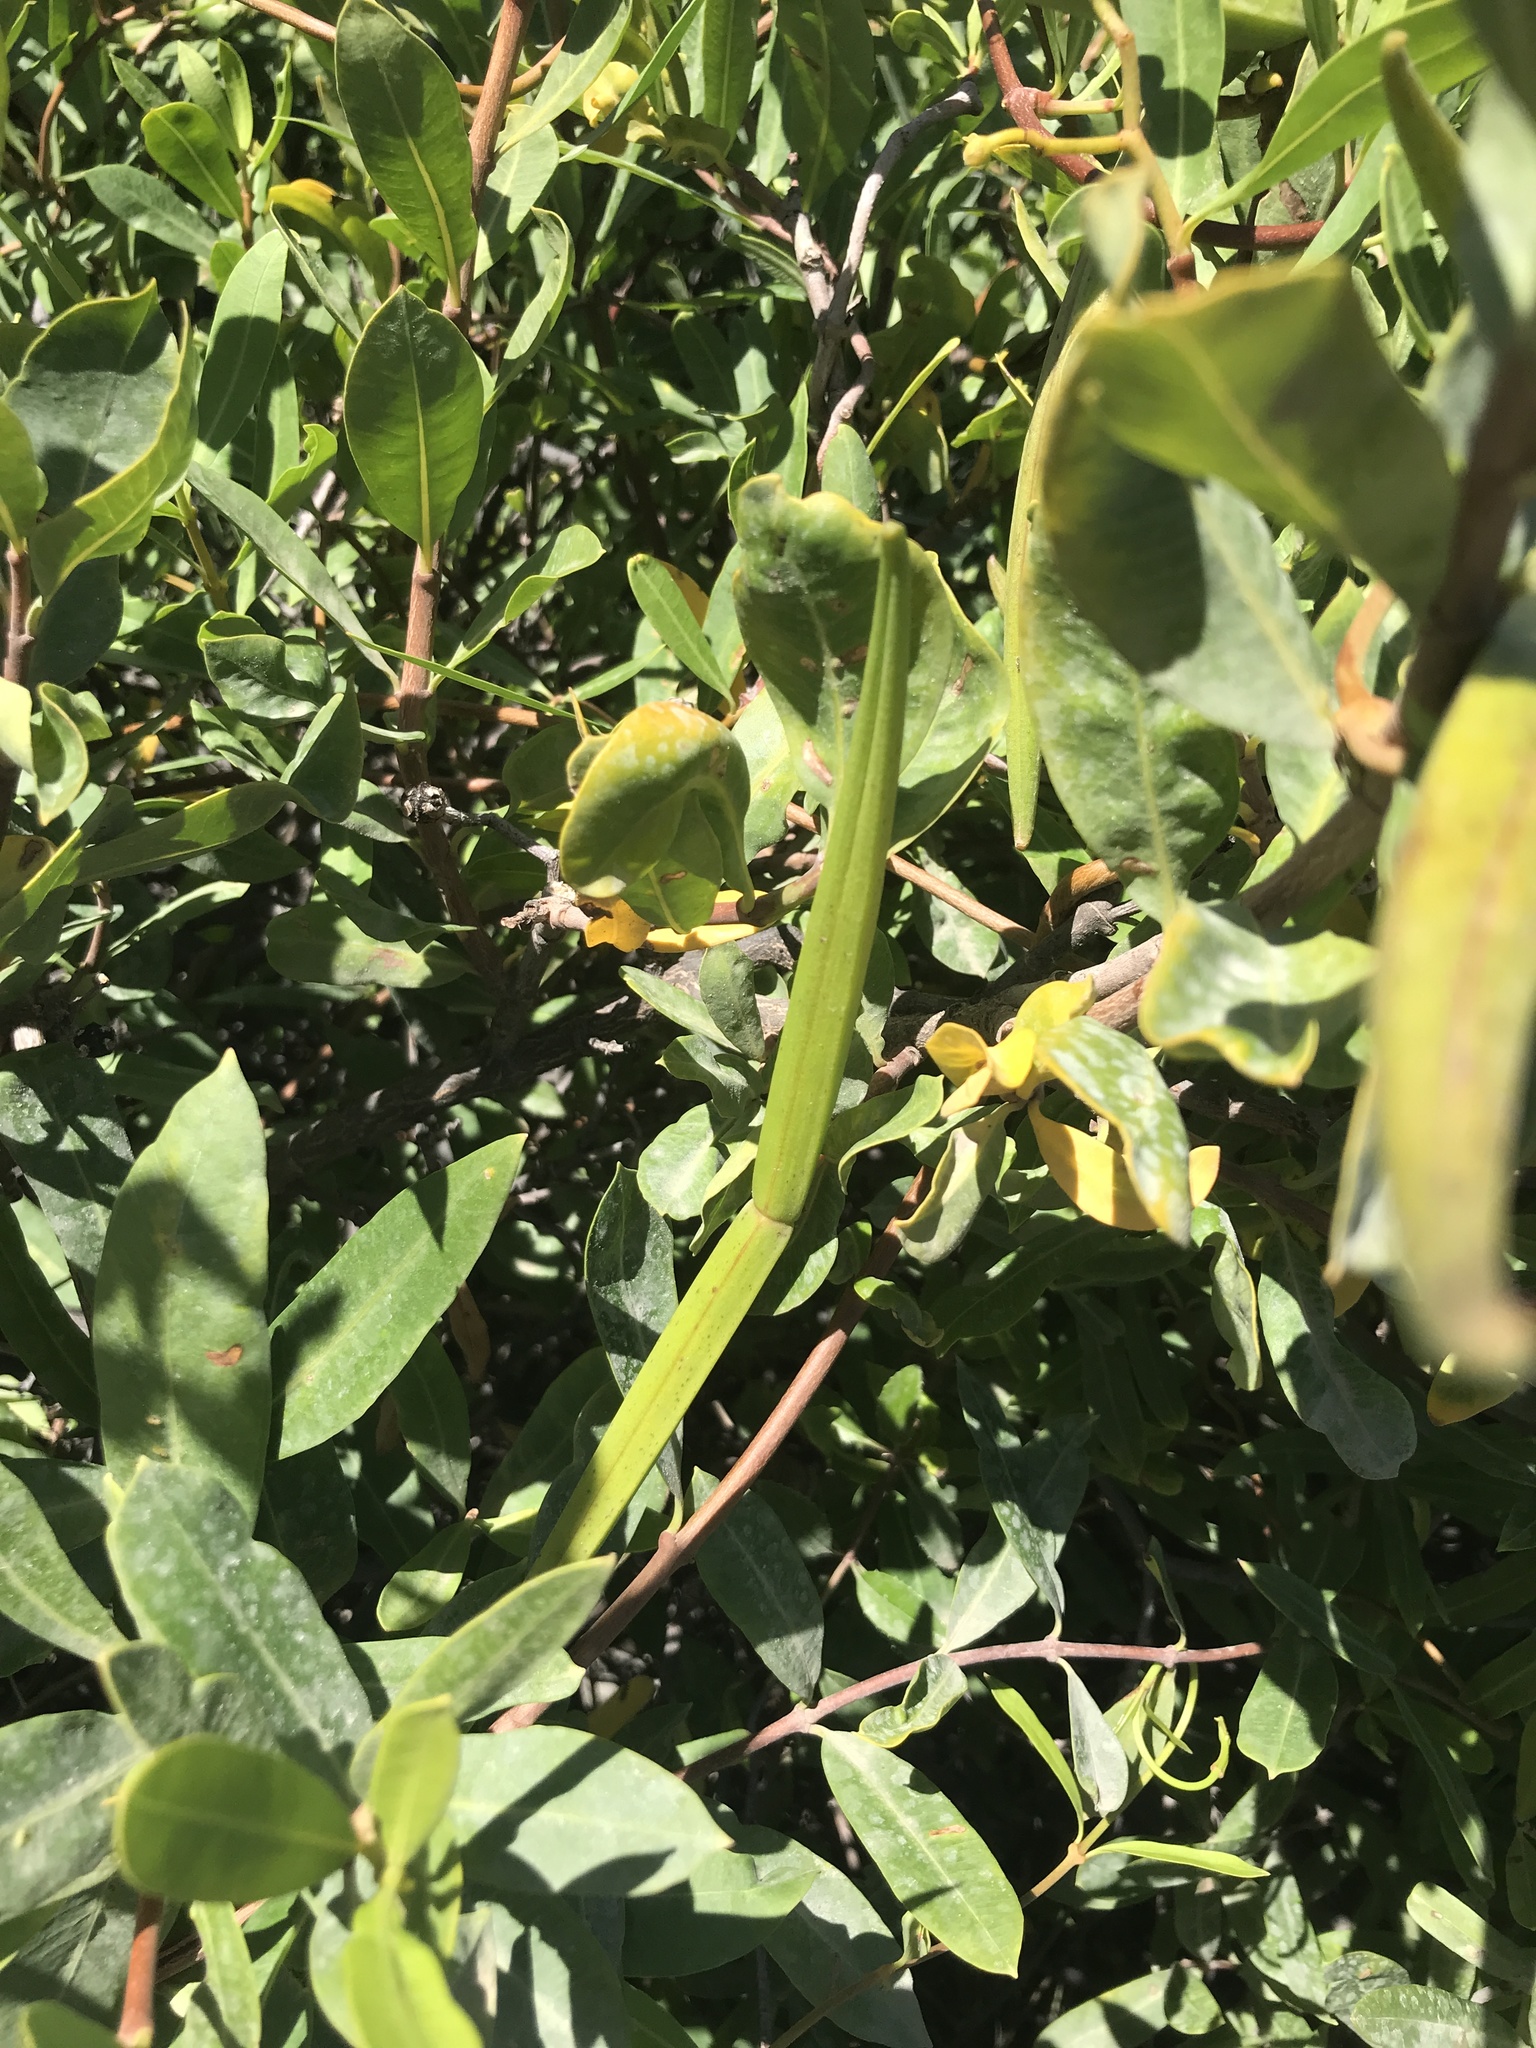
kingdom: Plantae
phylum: Tracheophyta
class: Magnoliopsida
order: Gentianales
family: Apocynaceae
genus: Periploca
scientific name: Periploca laevigata
